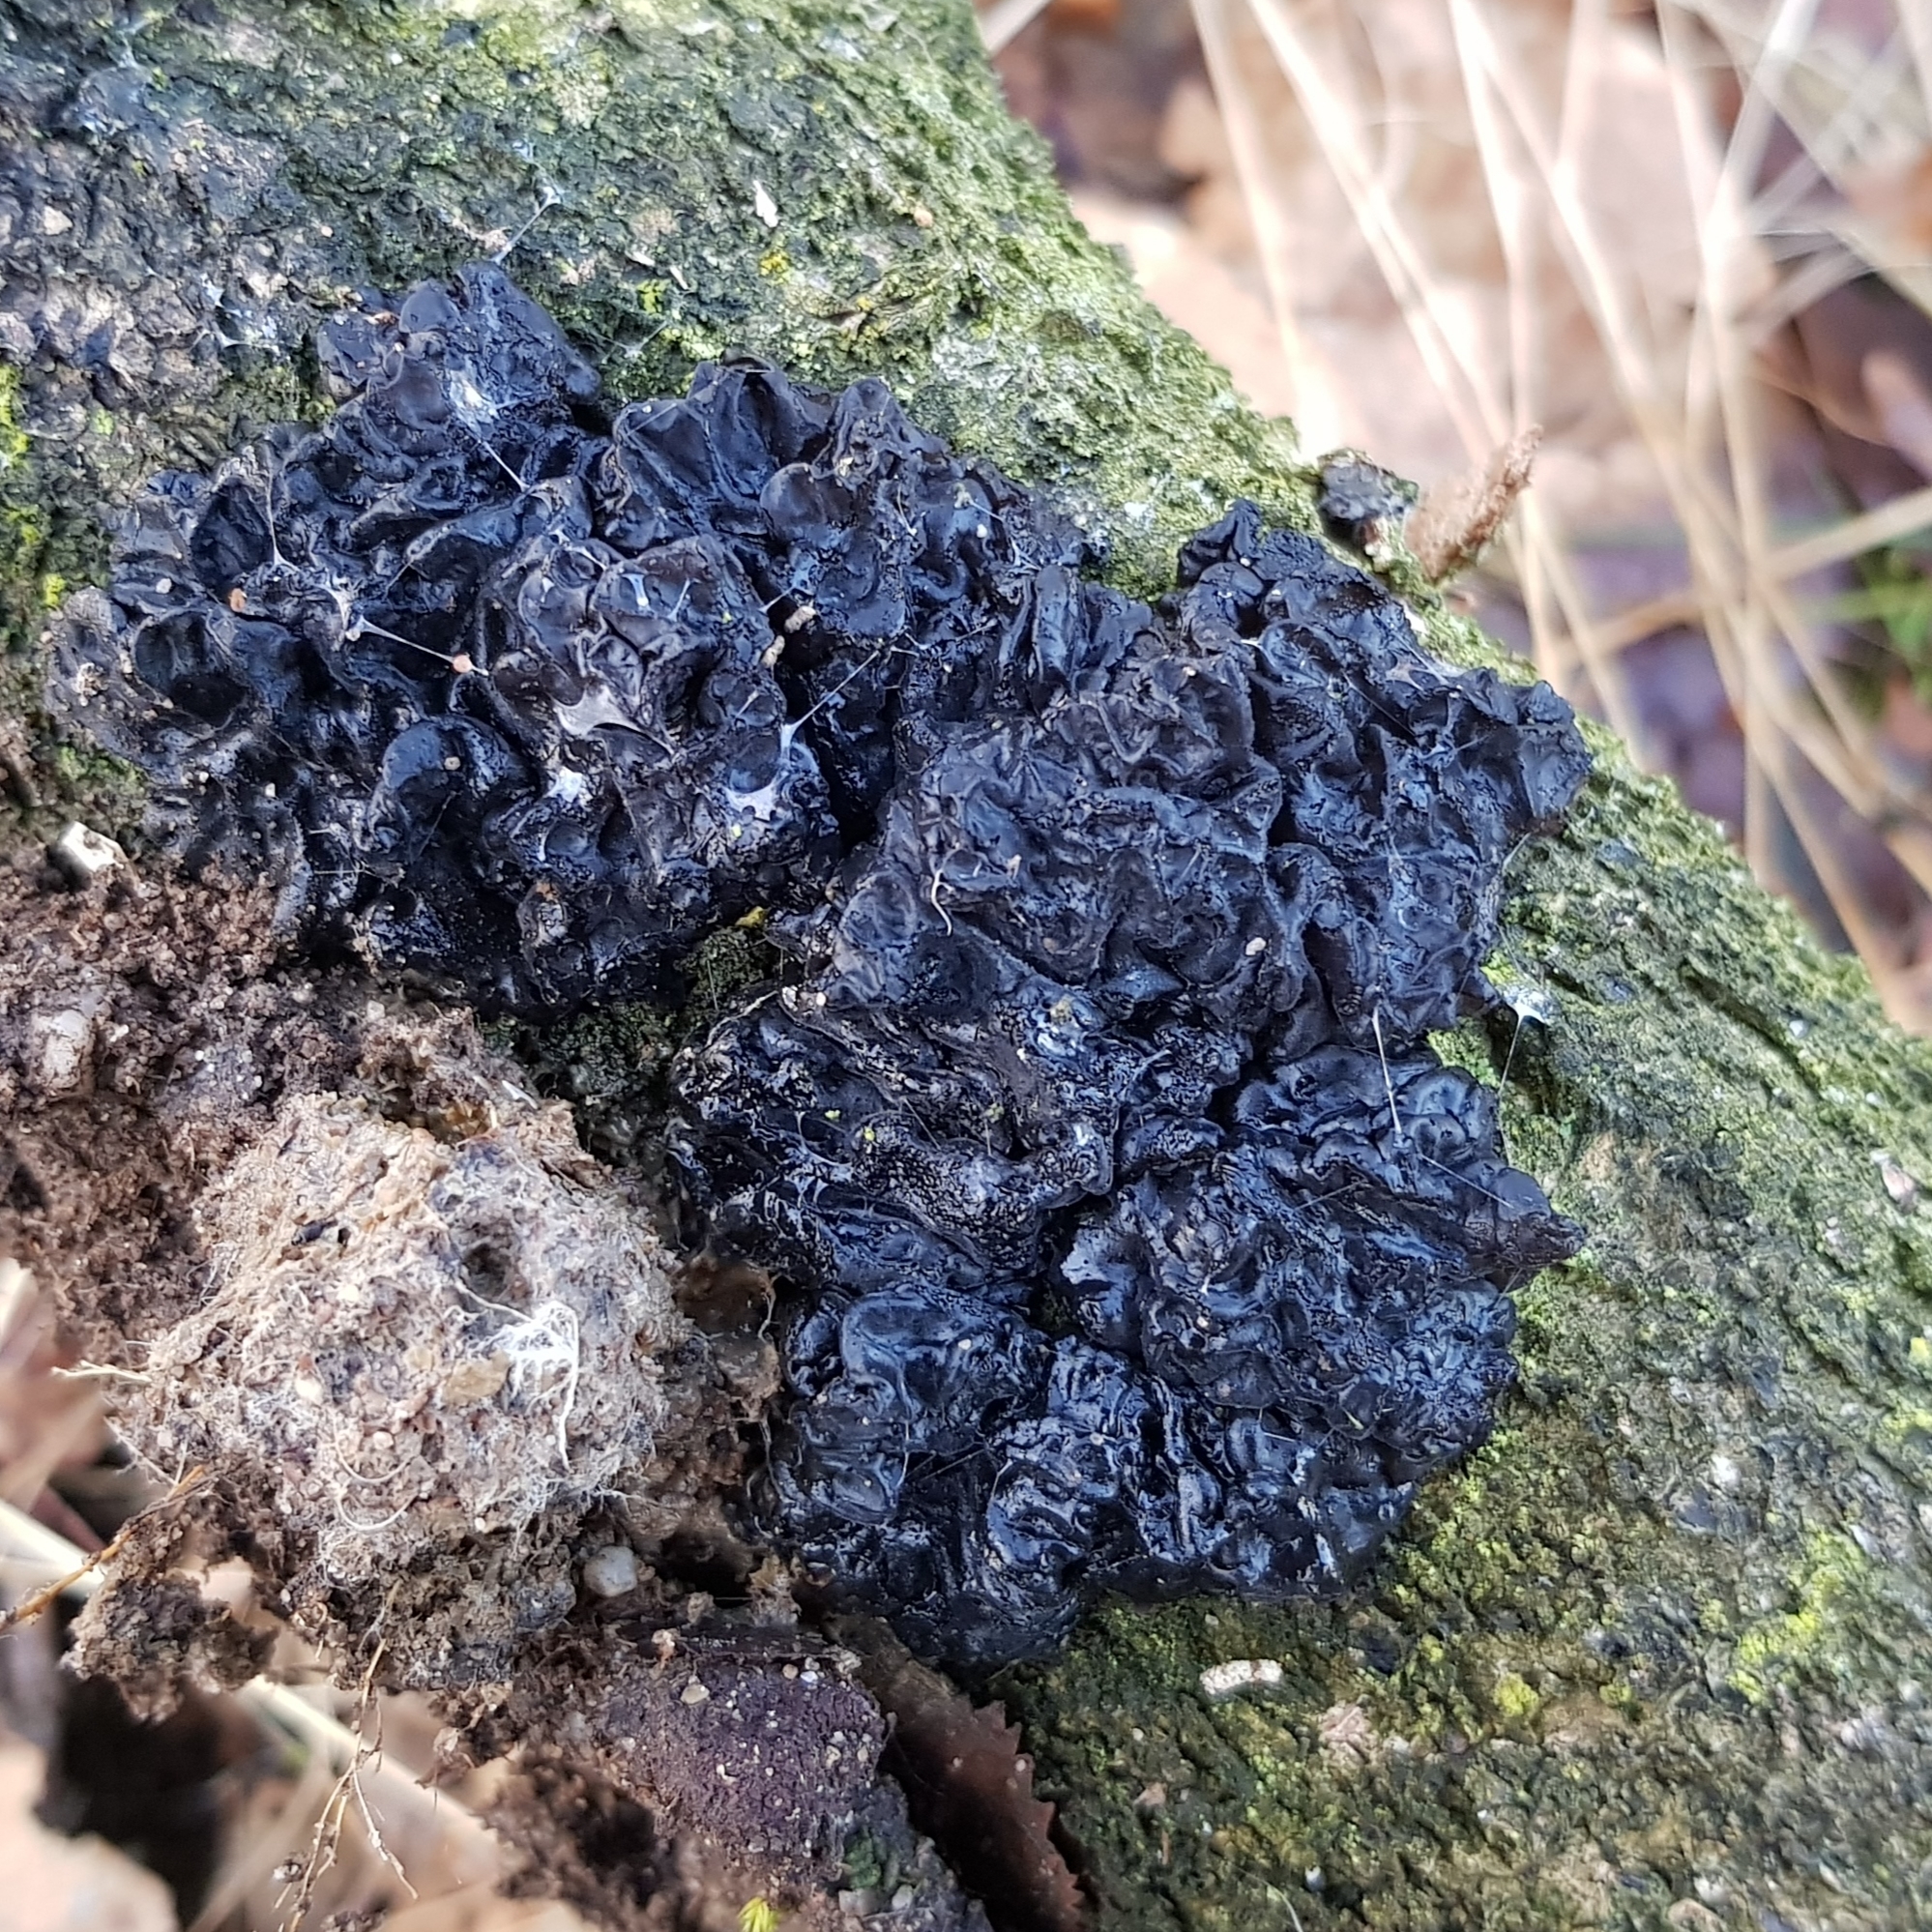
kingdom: Fungi
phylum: Basidiomycota
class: Agaricomycetes
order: Auriculariales
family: Auriculariaceae
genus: Exidia
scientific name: Exidia nigricans
